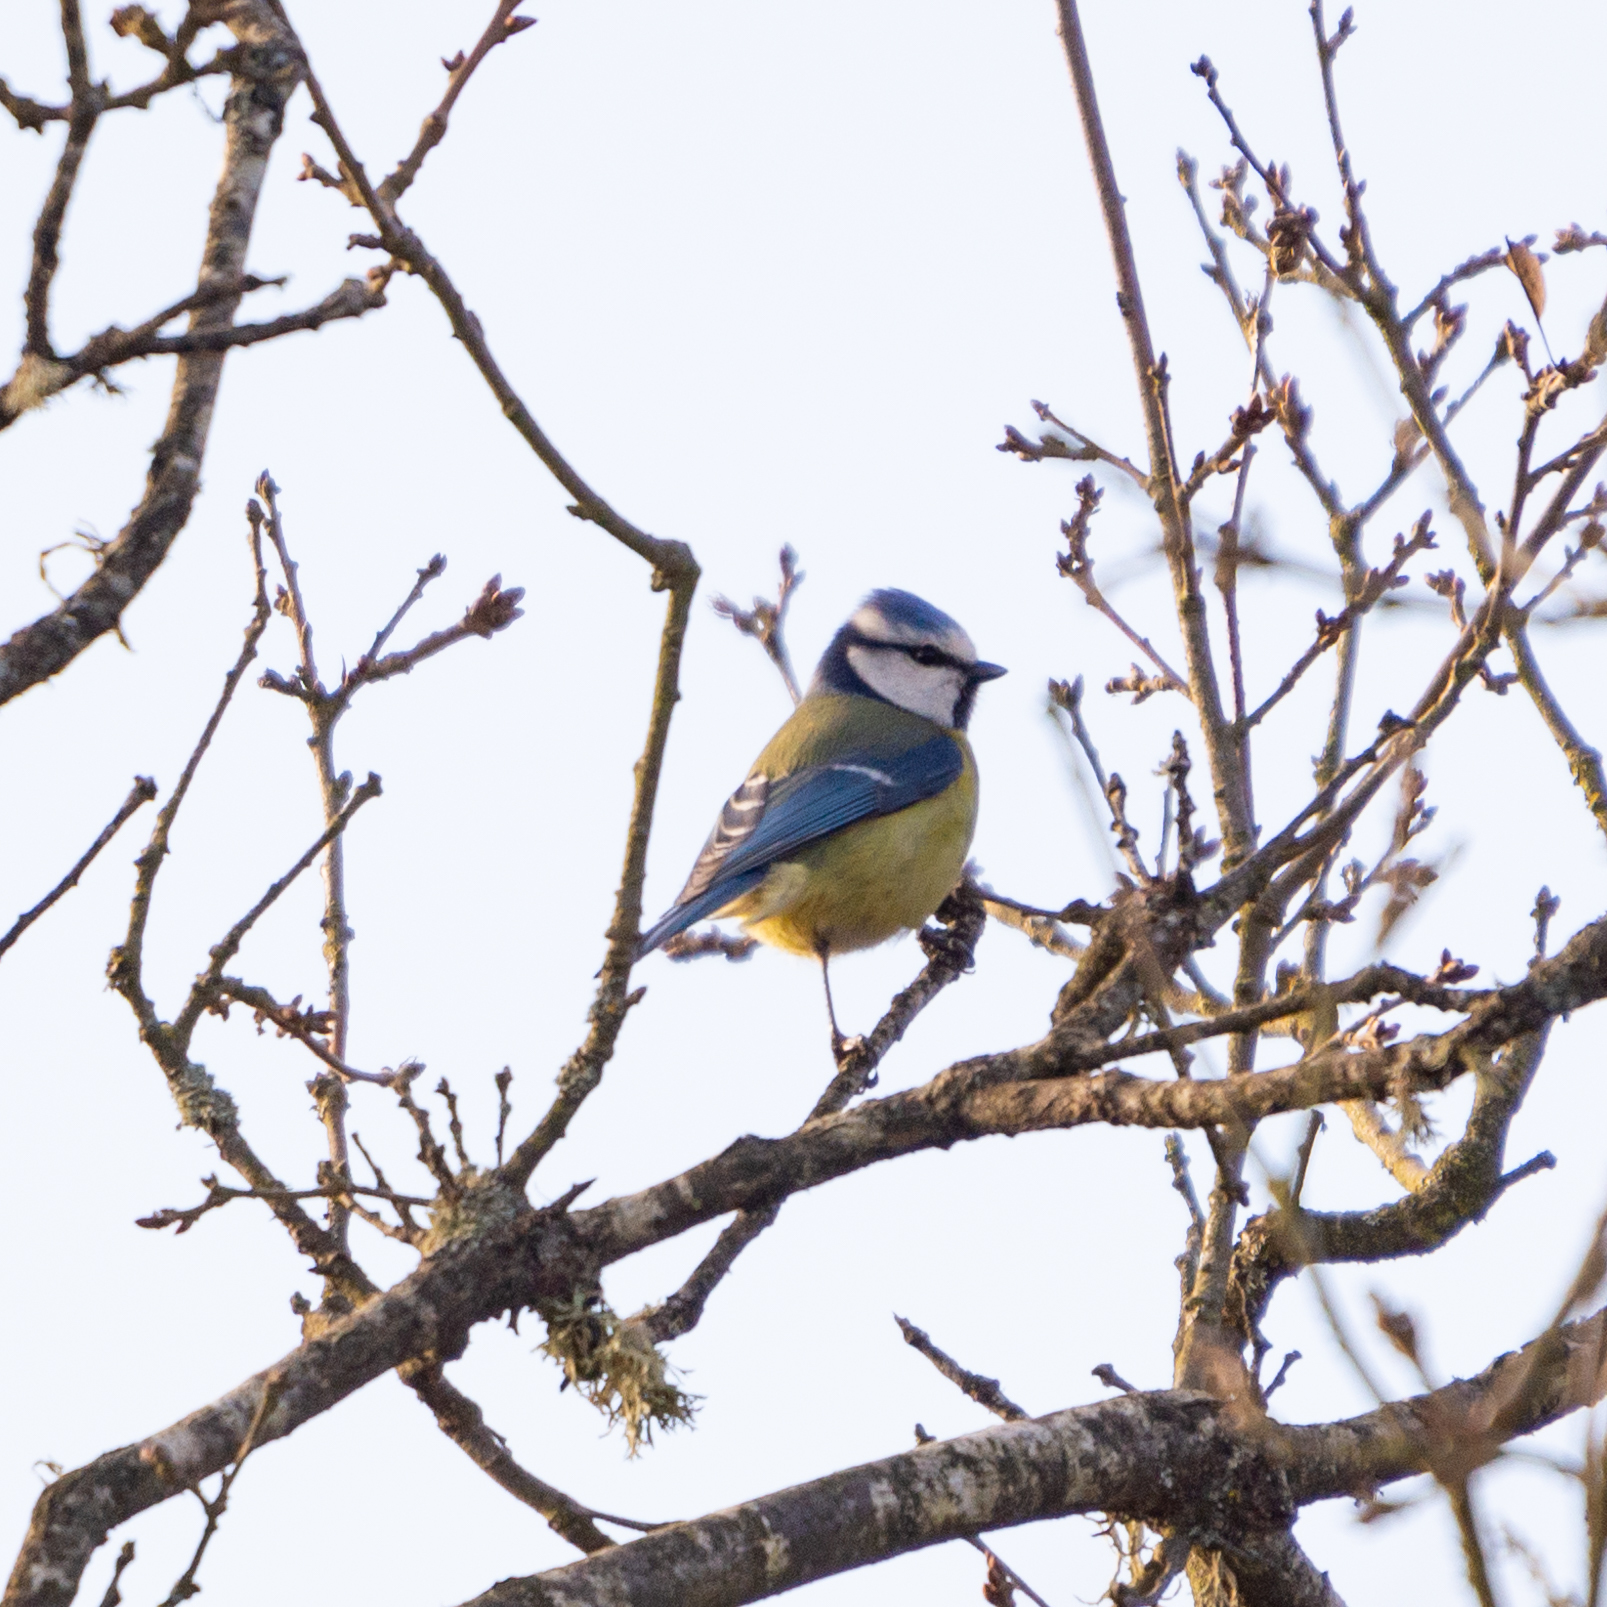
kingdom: Animalia
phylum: Chordata
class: Aves
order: Passeriformes
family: Paridae
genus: Cyanistes
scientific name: Cyanistes caeruleus
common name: Eurasian blue tit
